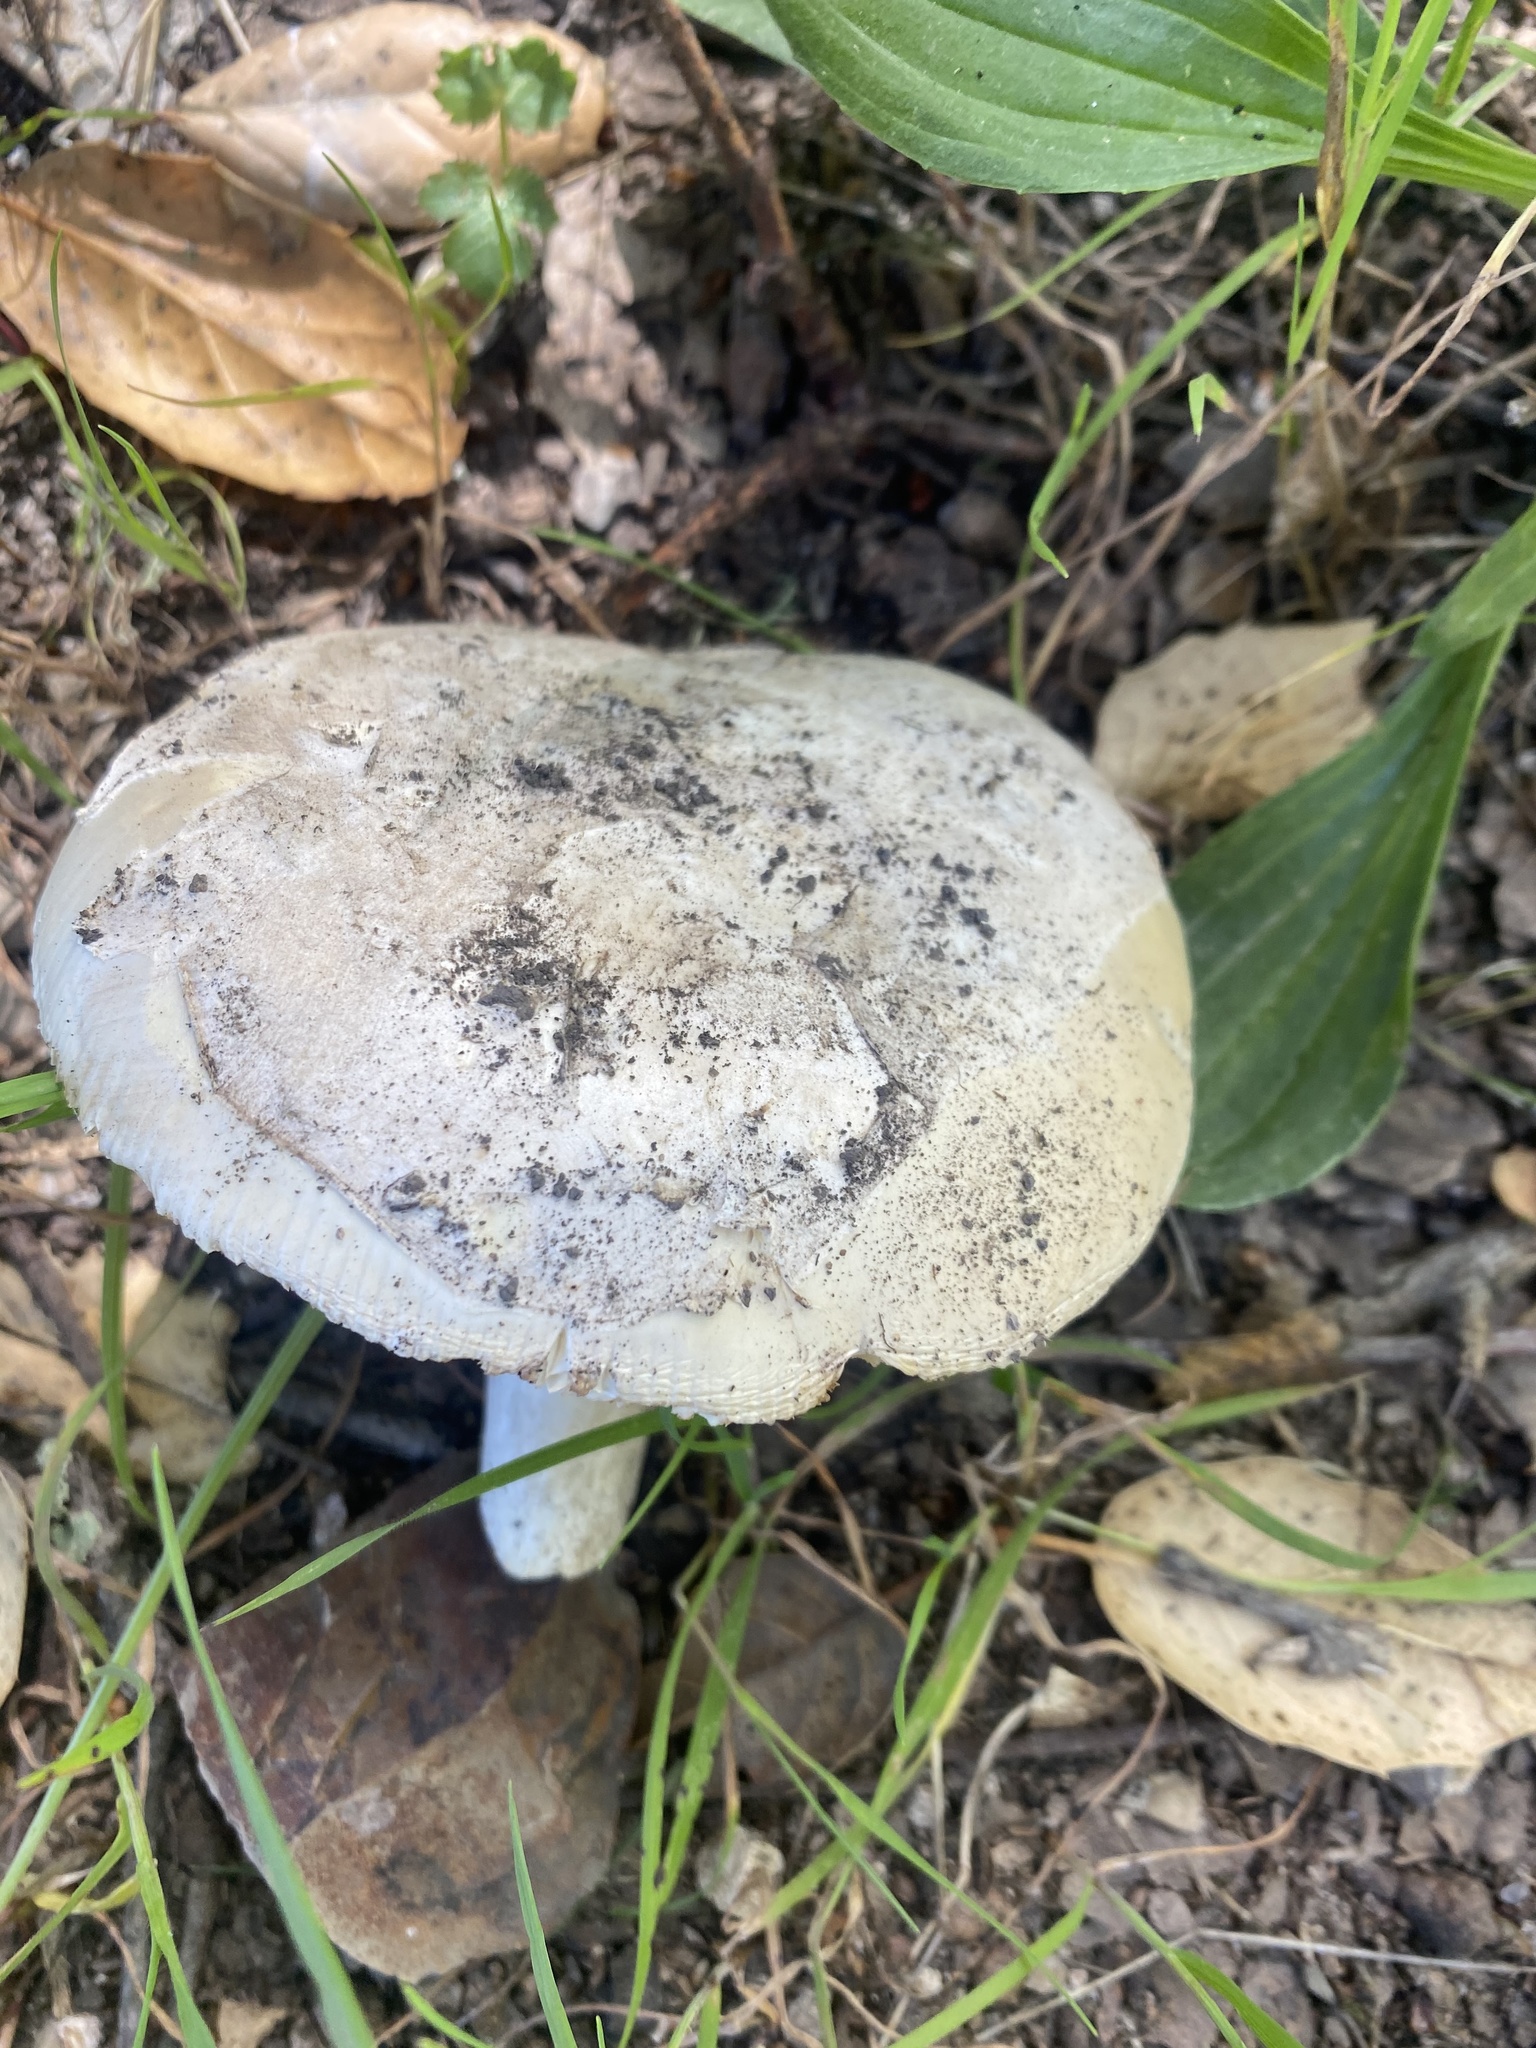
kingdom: Fungi
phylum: Basidiomycota
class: Agaricomycetes
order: Agaricales
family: Amanitaceae
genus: Amanita
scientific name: Amanita vernicoccora
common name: Spring coccora
